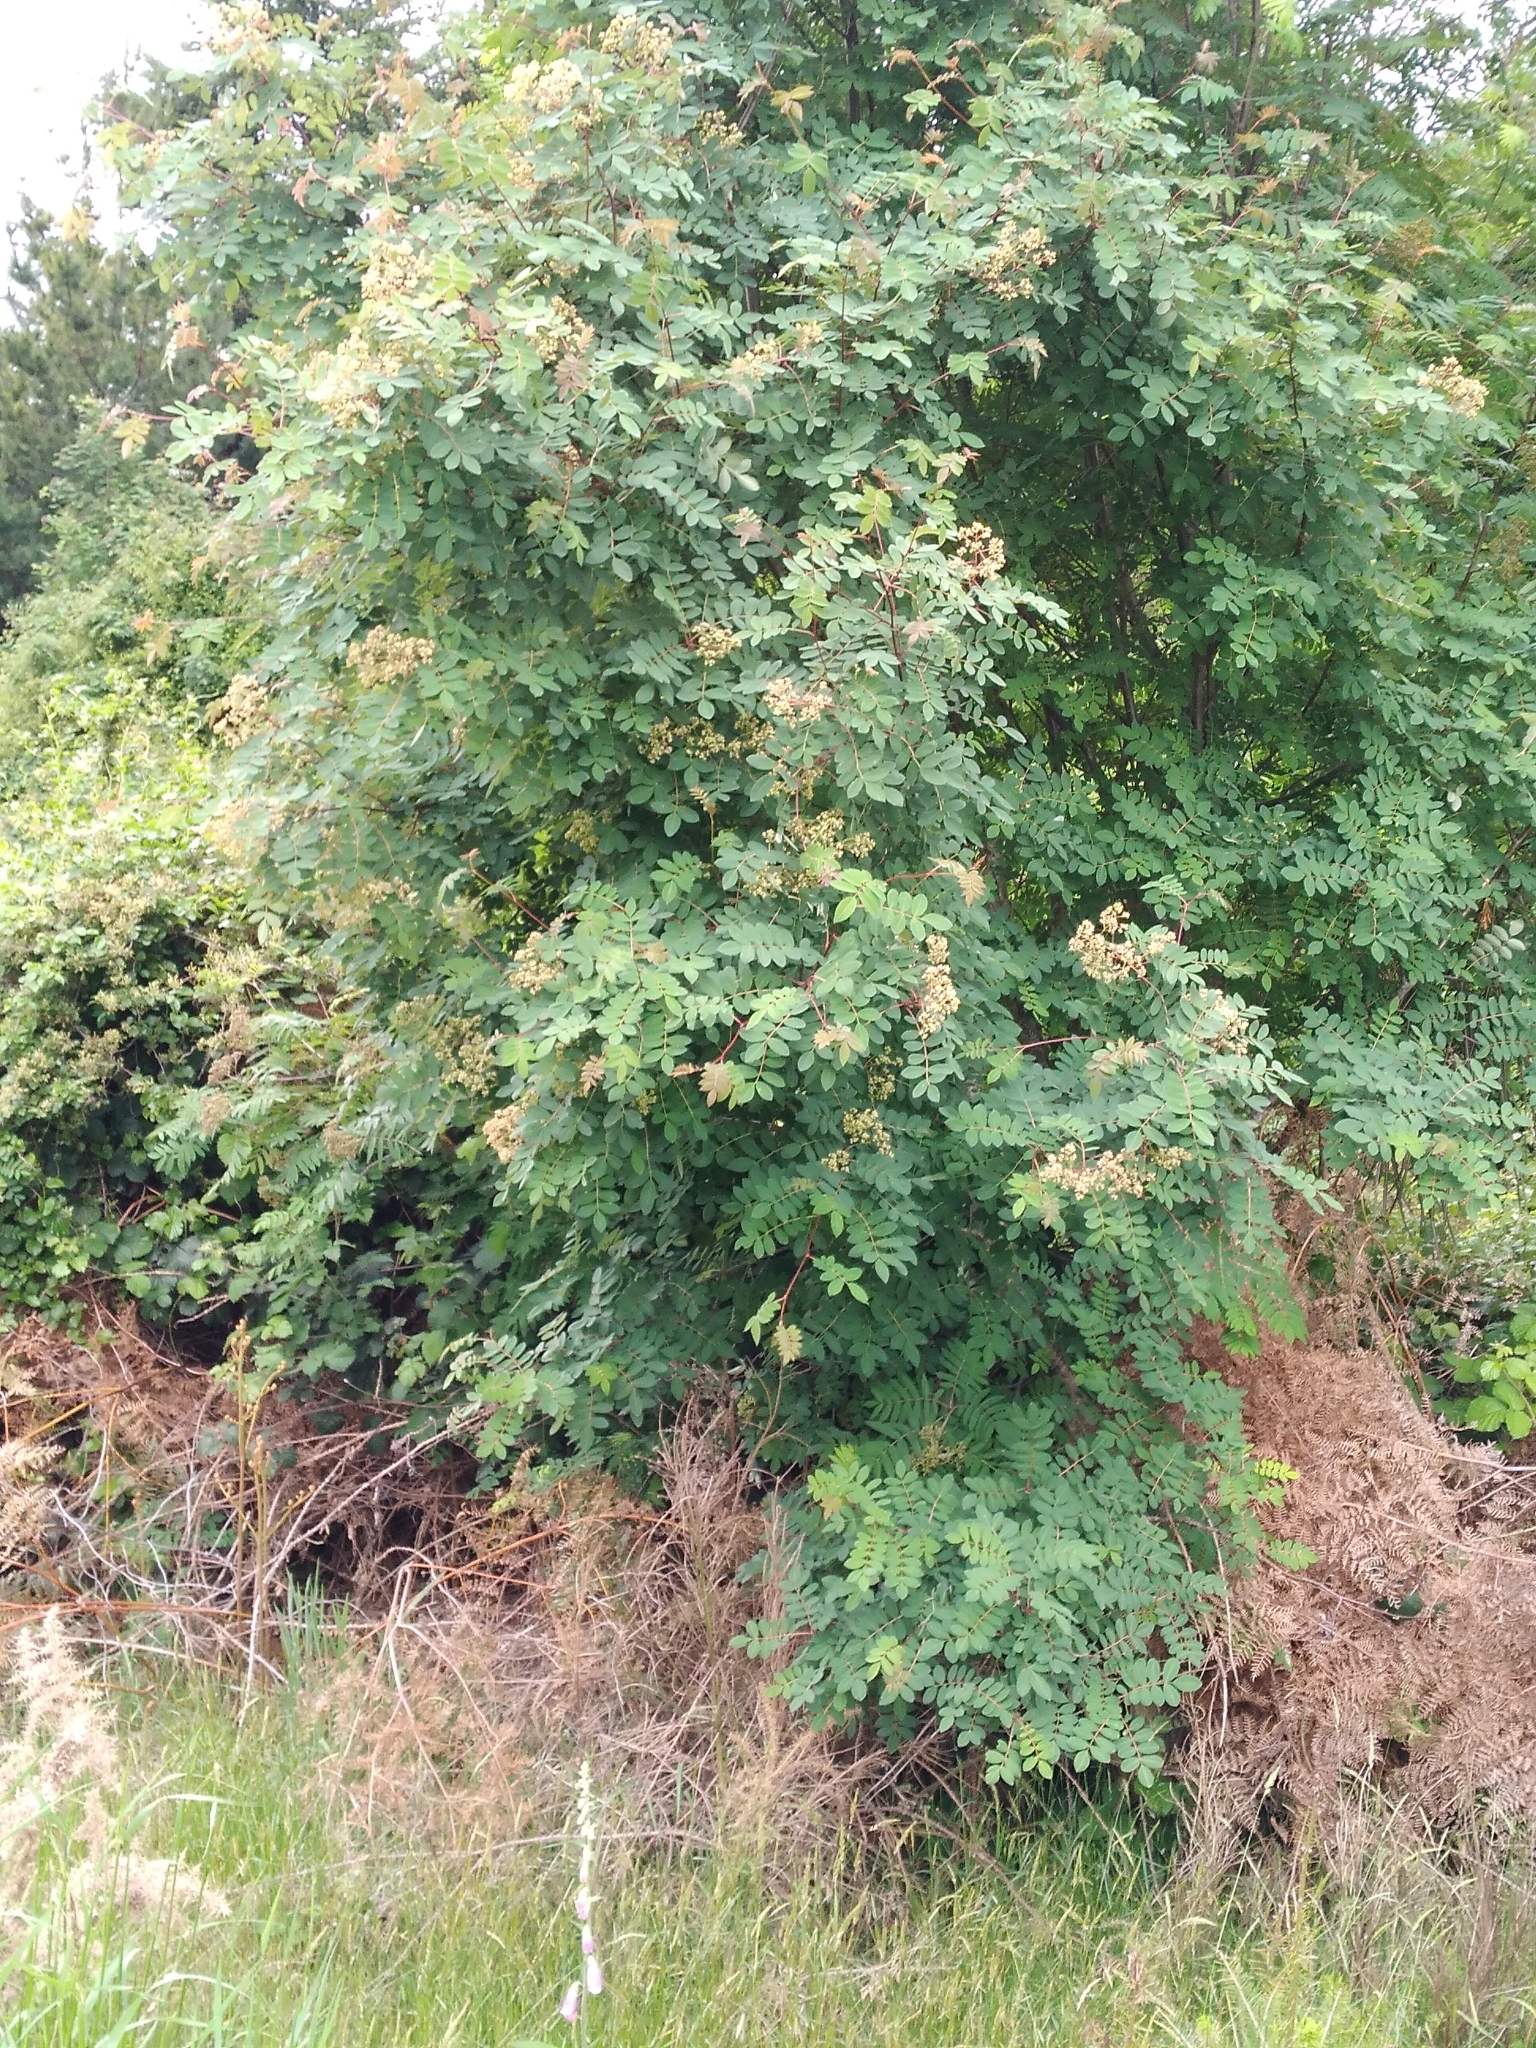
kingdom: Plantae
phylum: Tracheophyta
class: Magnoliopsida
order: Rosales
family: Rosaceae
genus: Sorbus
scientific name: Sorbus aucuparia
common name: Rowan
